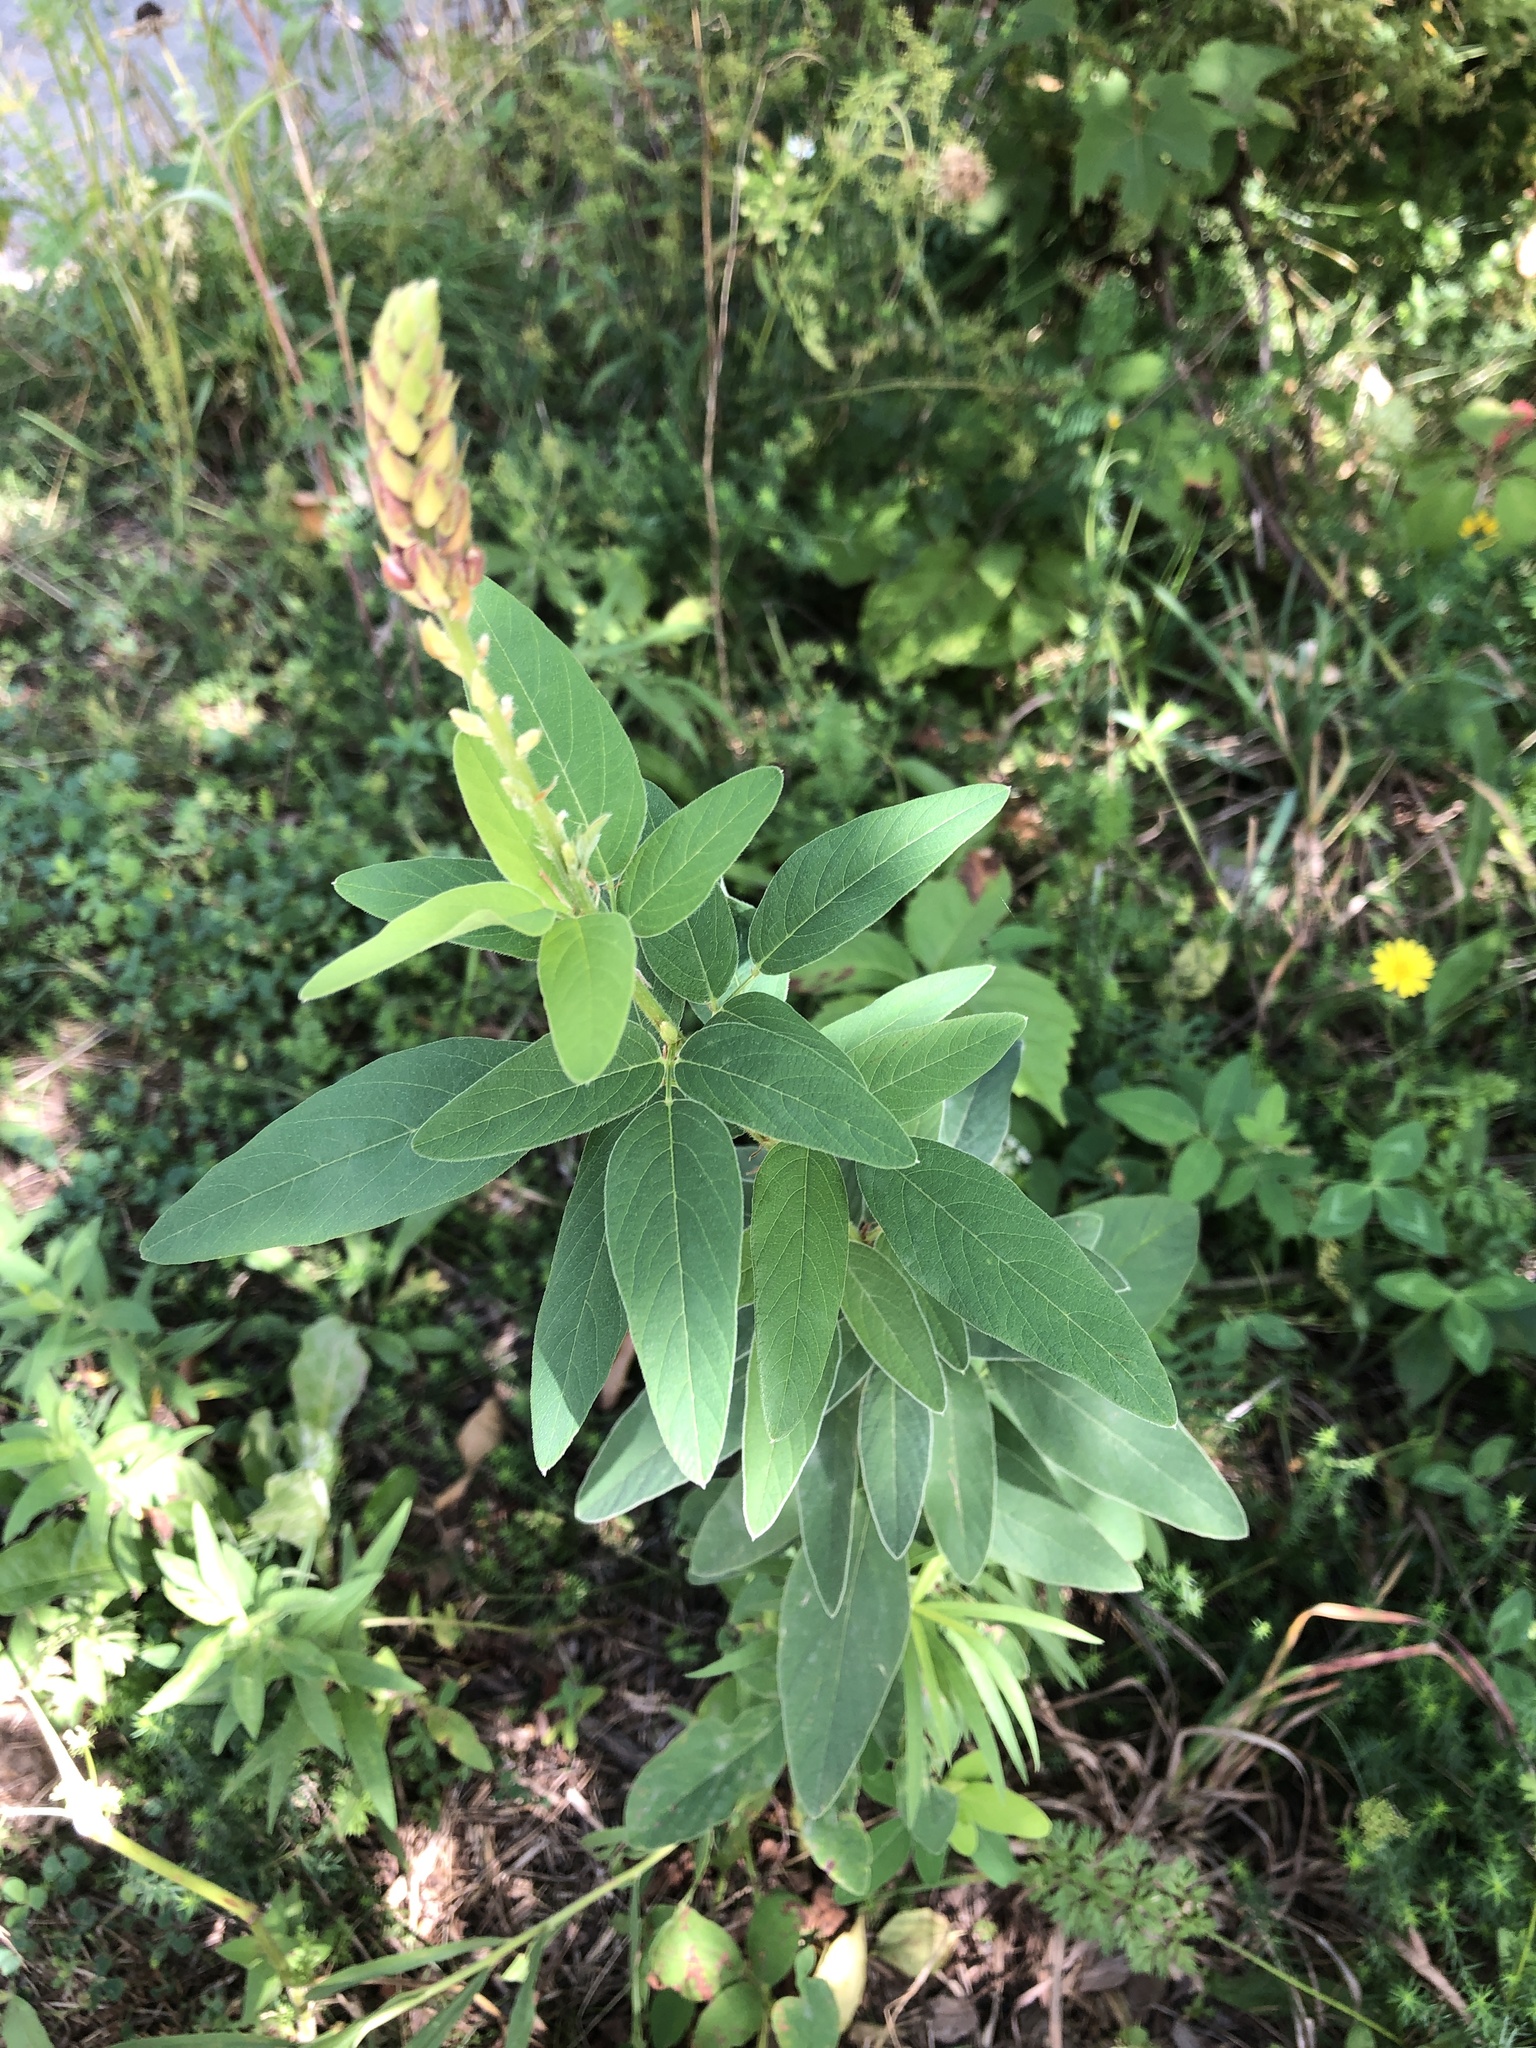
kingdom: Plantae
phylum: Tracheophyta
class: Magnoliopsida
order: Fabales
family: Fabaceae
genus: Desmodium
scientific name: Desmodium canadense
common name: Canada tick-trefoil
